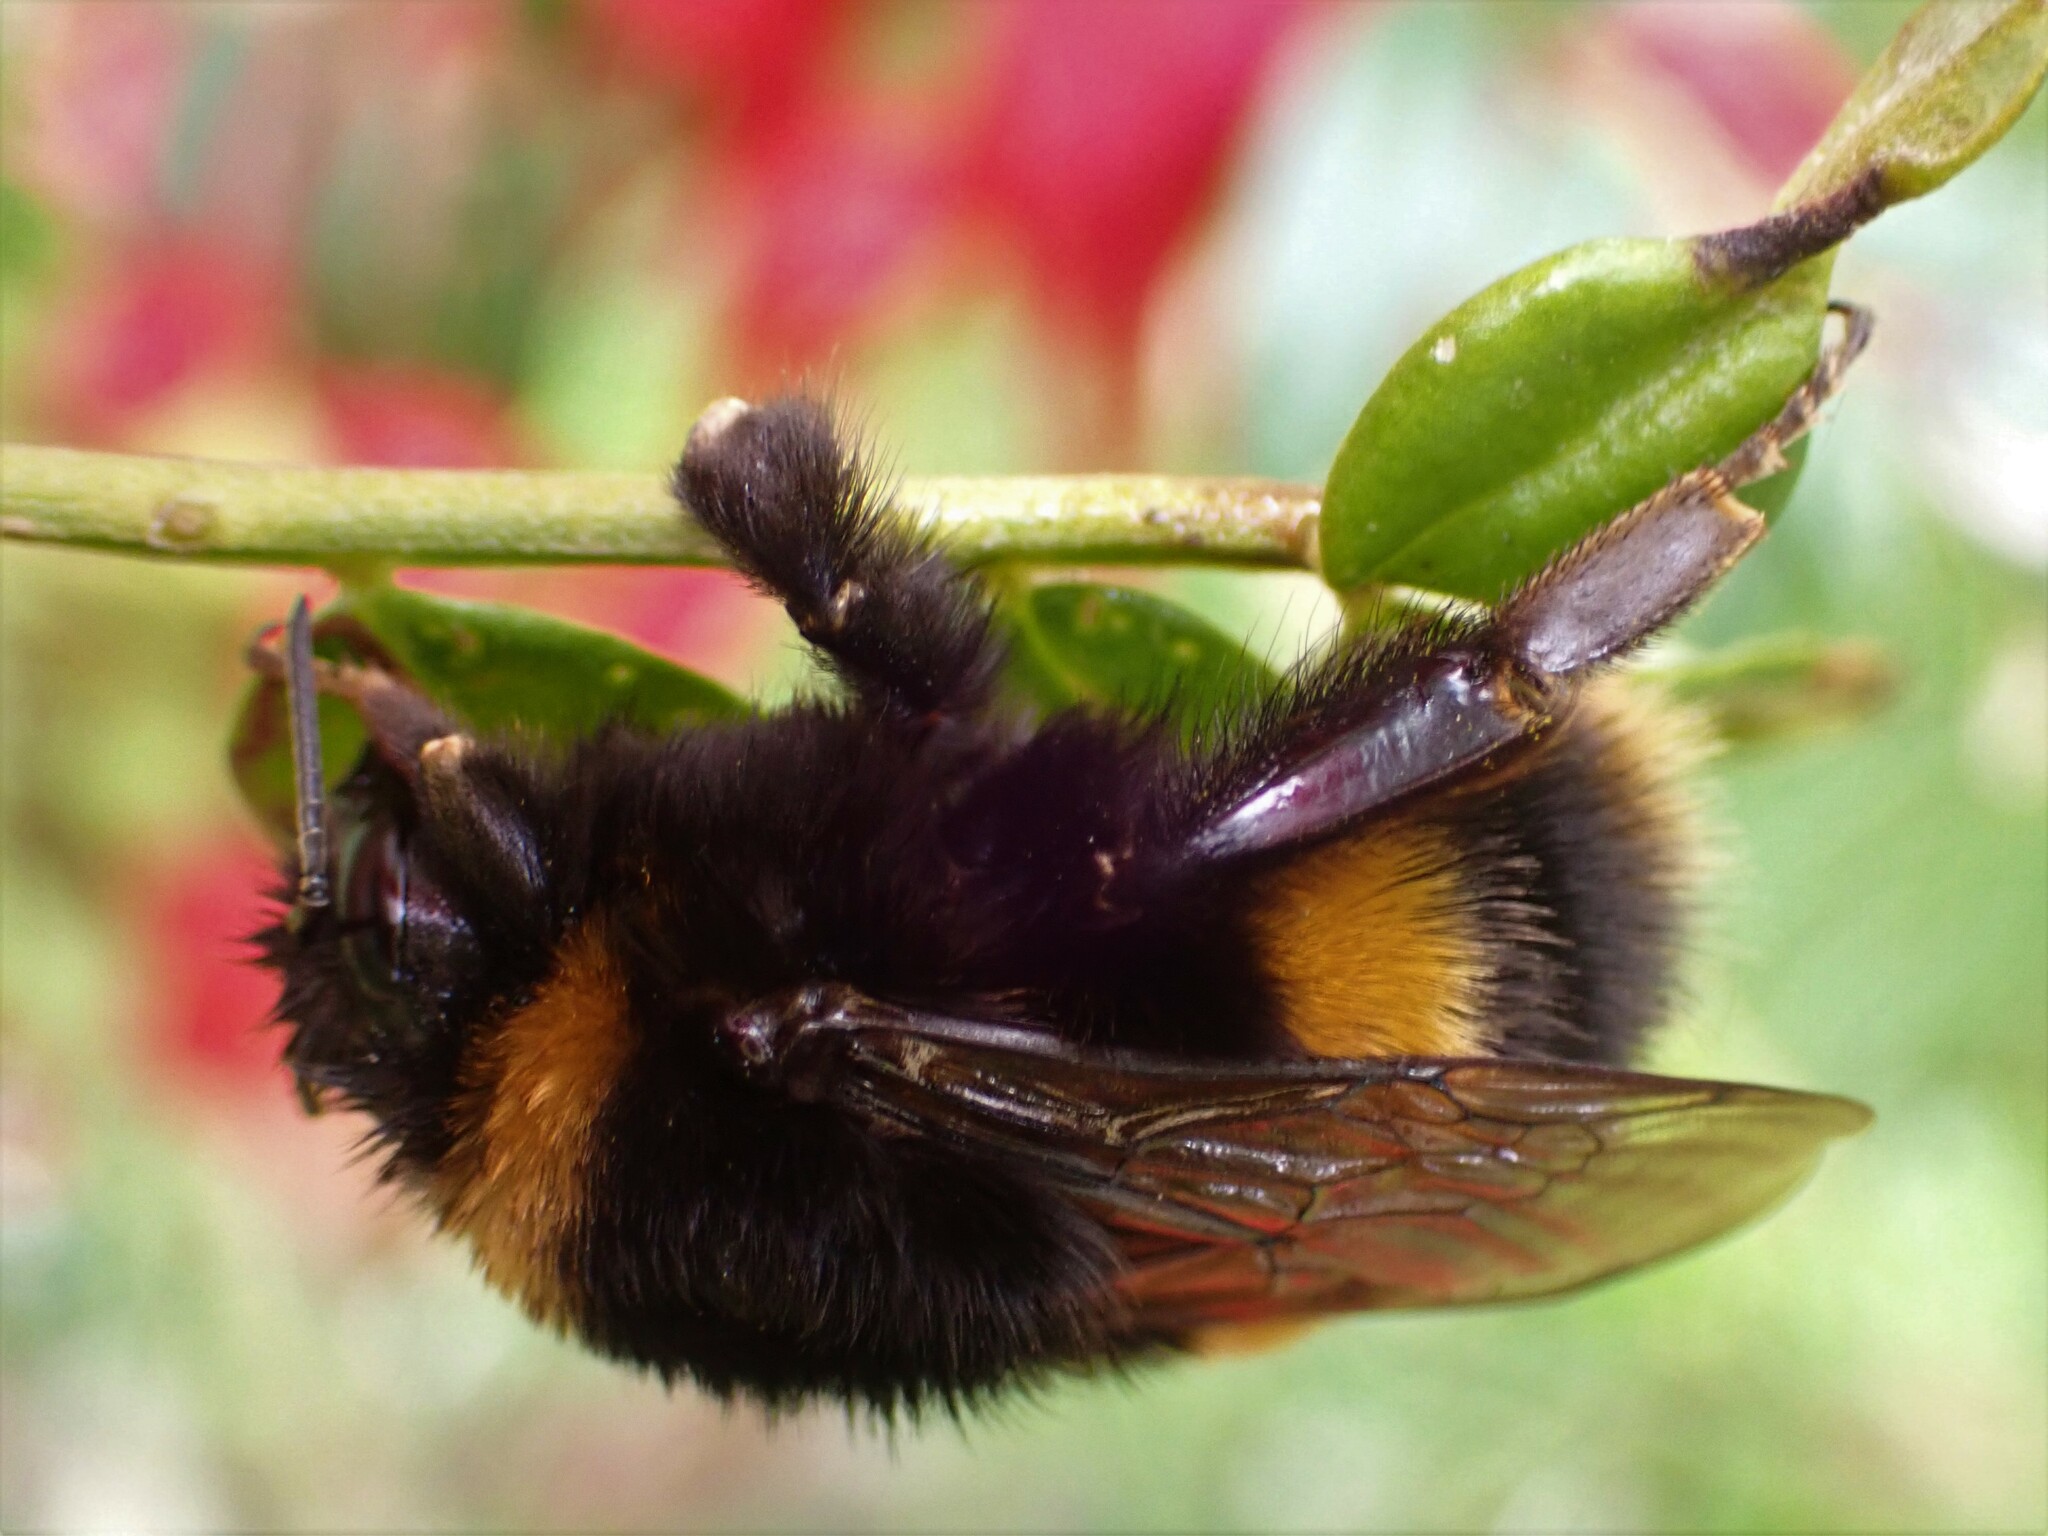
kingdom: Animalia
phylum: Arthropoda
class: Insecta
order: Hymenoptera
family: Apidae
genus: Bombus
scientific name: Bombus terrestris
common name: Buff-tailed bumblebee
